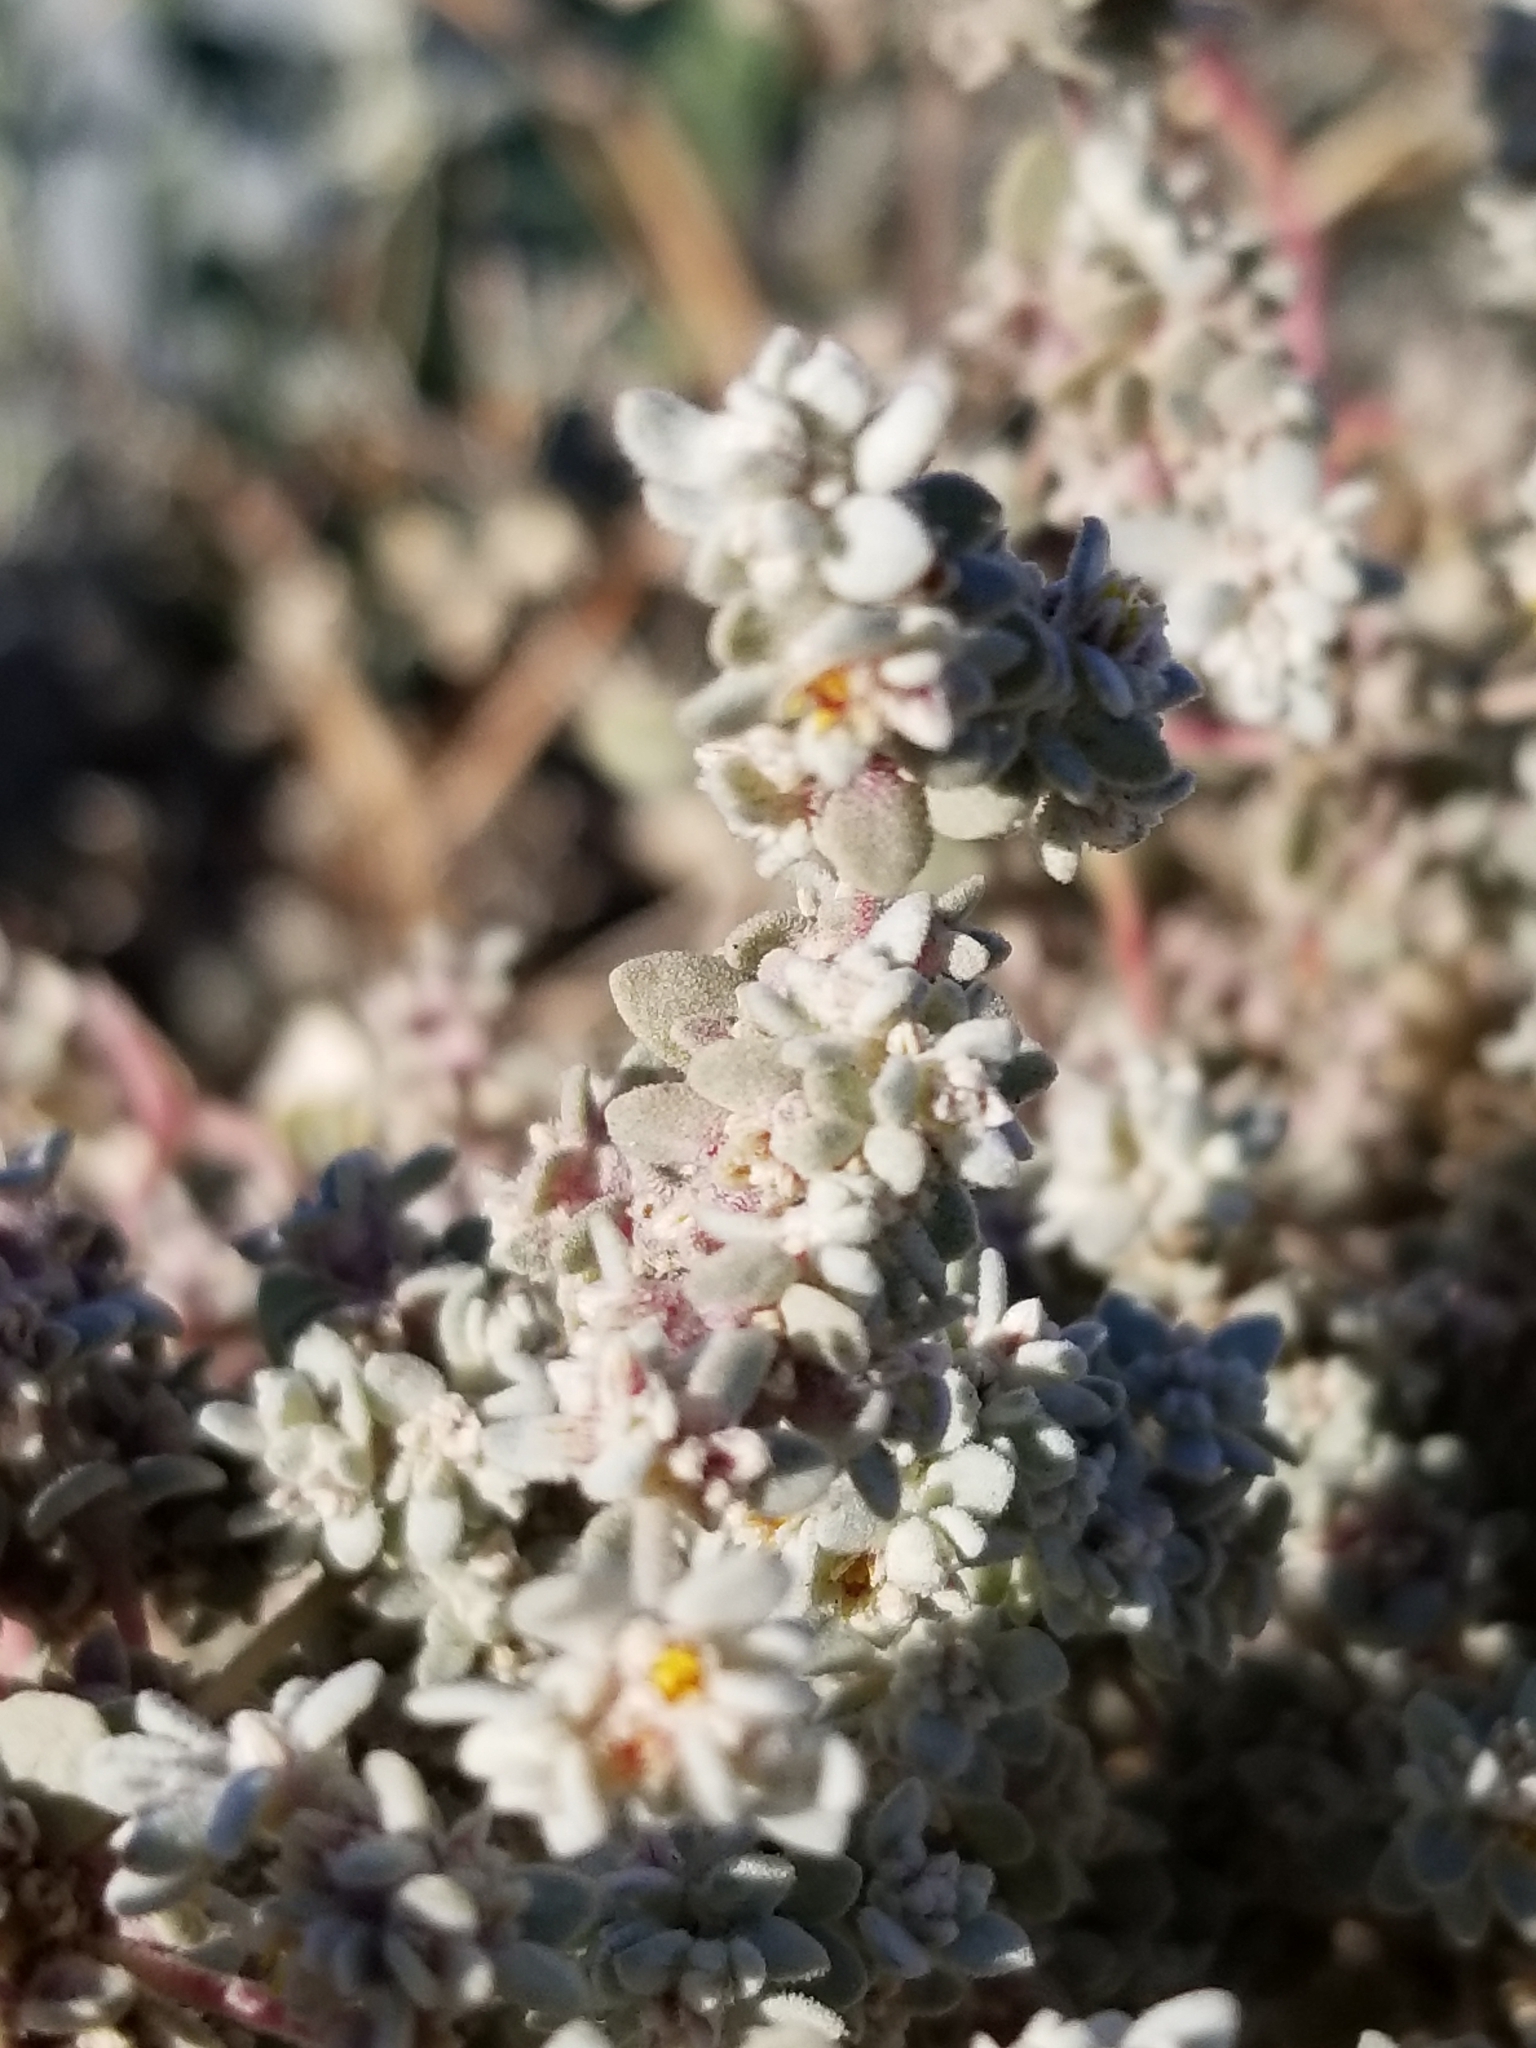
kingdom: Plantae
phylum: Tracheophyta
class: Magnoliopsida
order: Caryophyllales
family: Amaranthaceae
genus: Tidestromia
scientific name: Tidestromia suffruticosa
